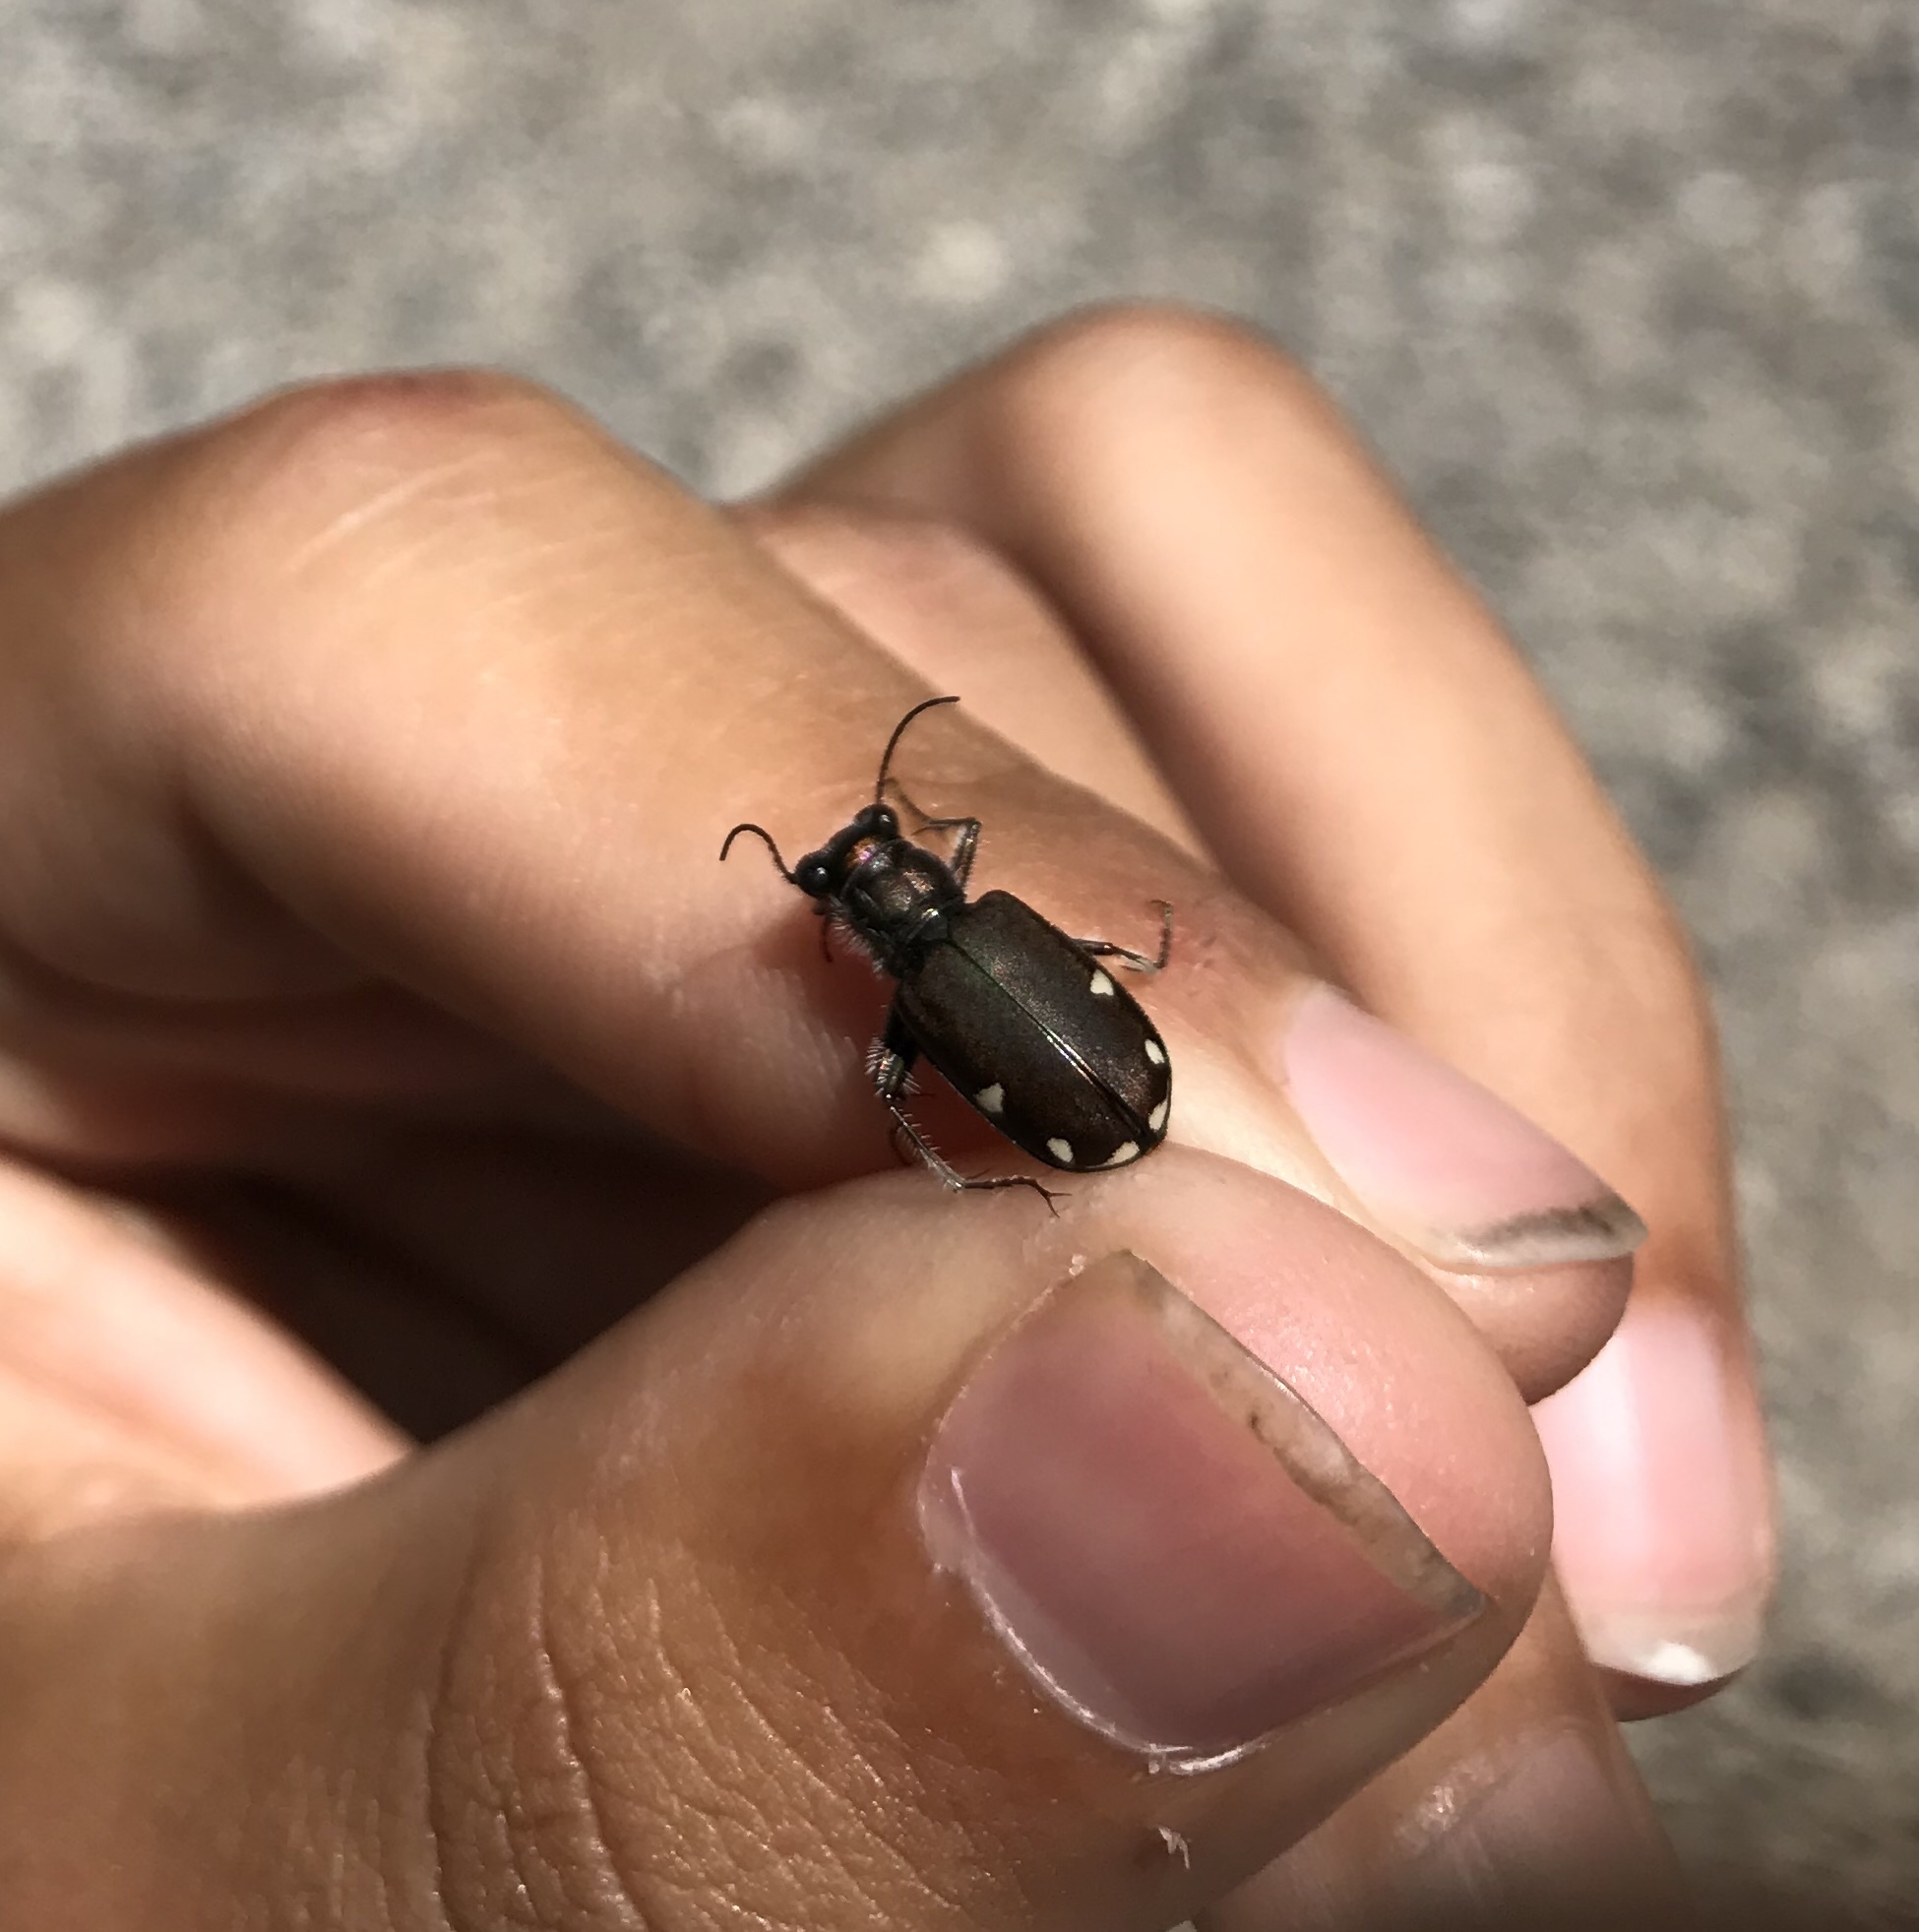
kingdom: Animalia
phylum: Arthropoda
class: Insecta
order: Coleoptera
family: Carabidae
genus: Cicindela
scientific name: Cicindela scutellaris
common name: Festive tiger beetle
